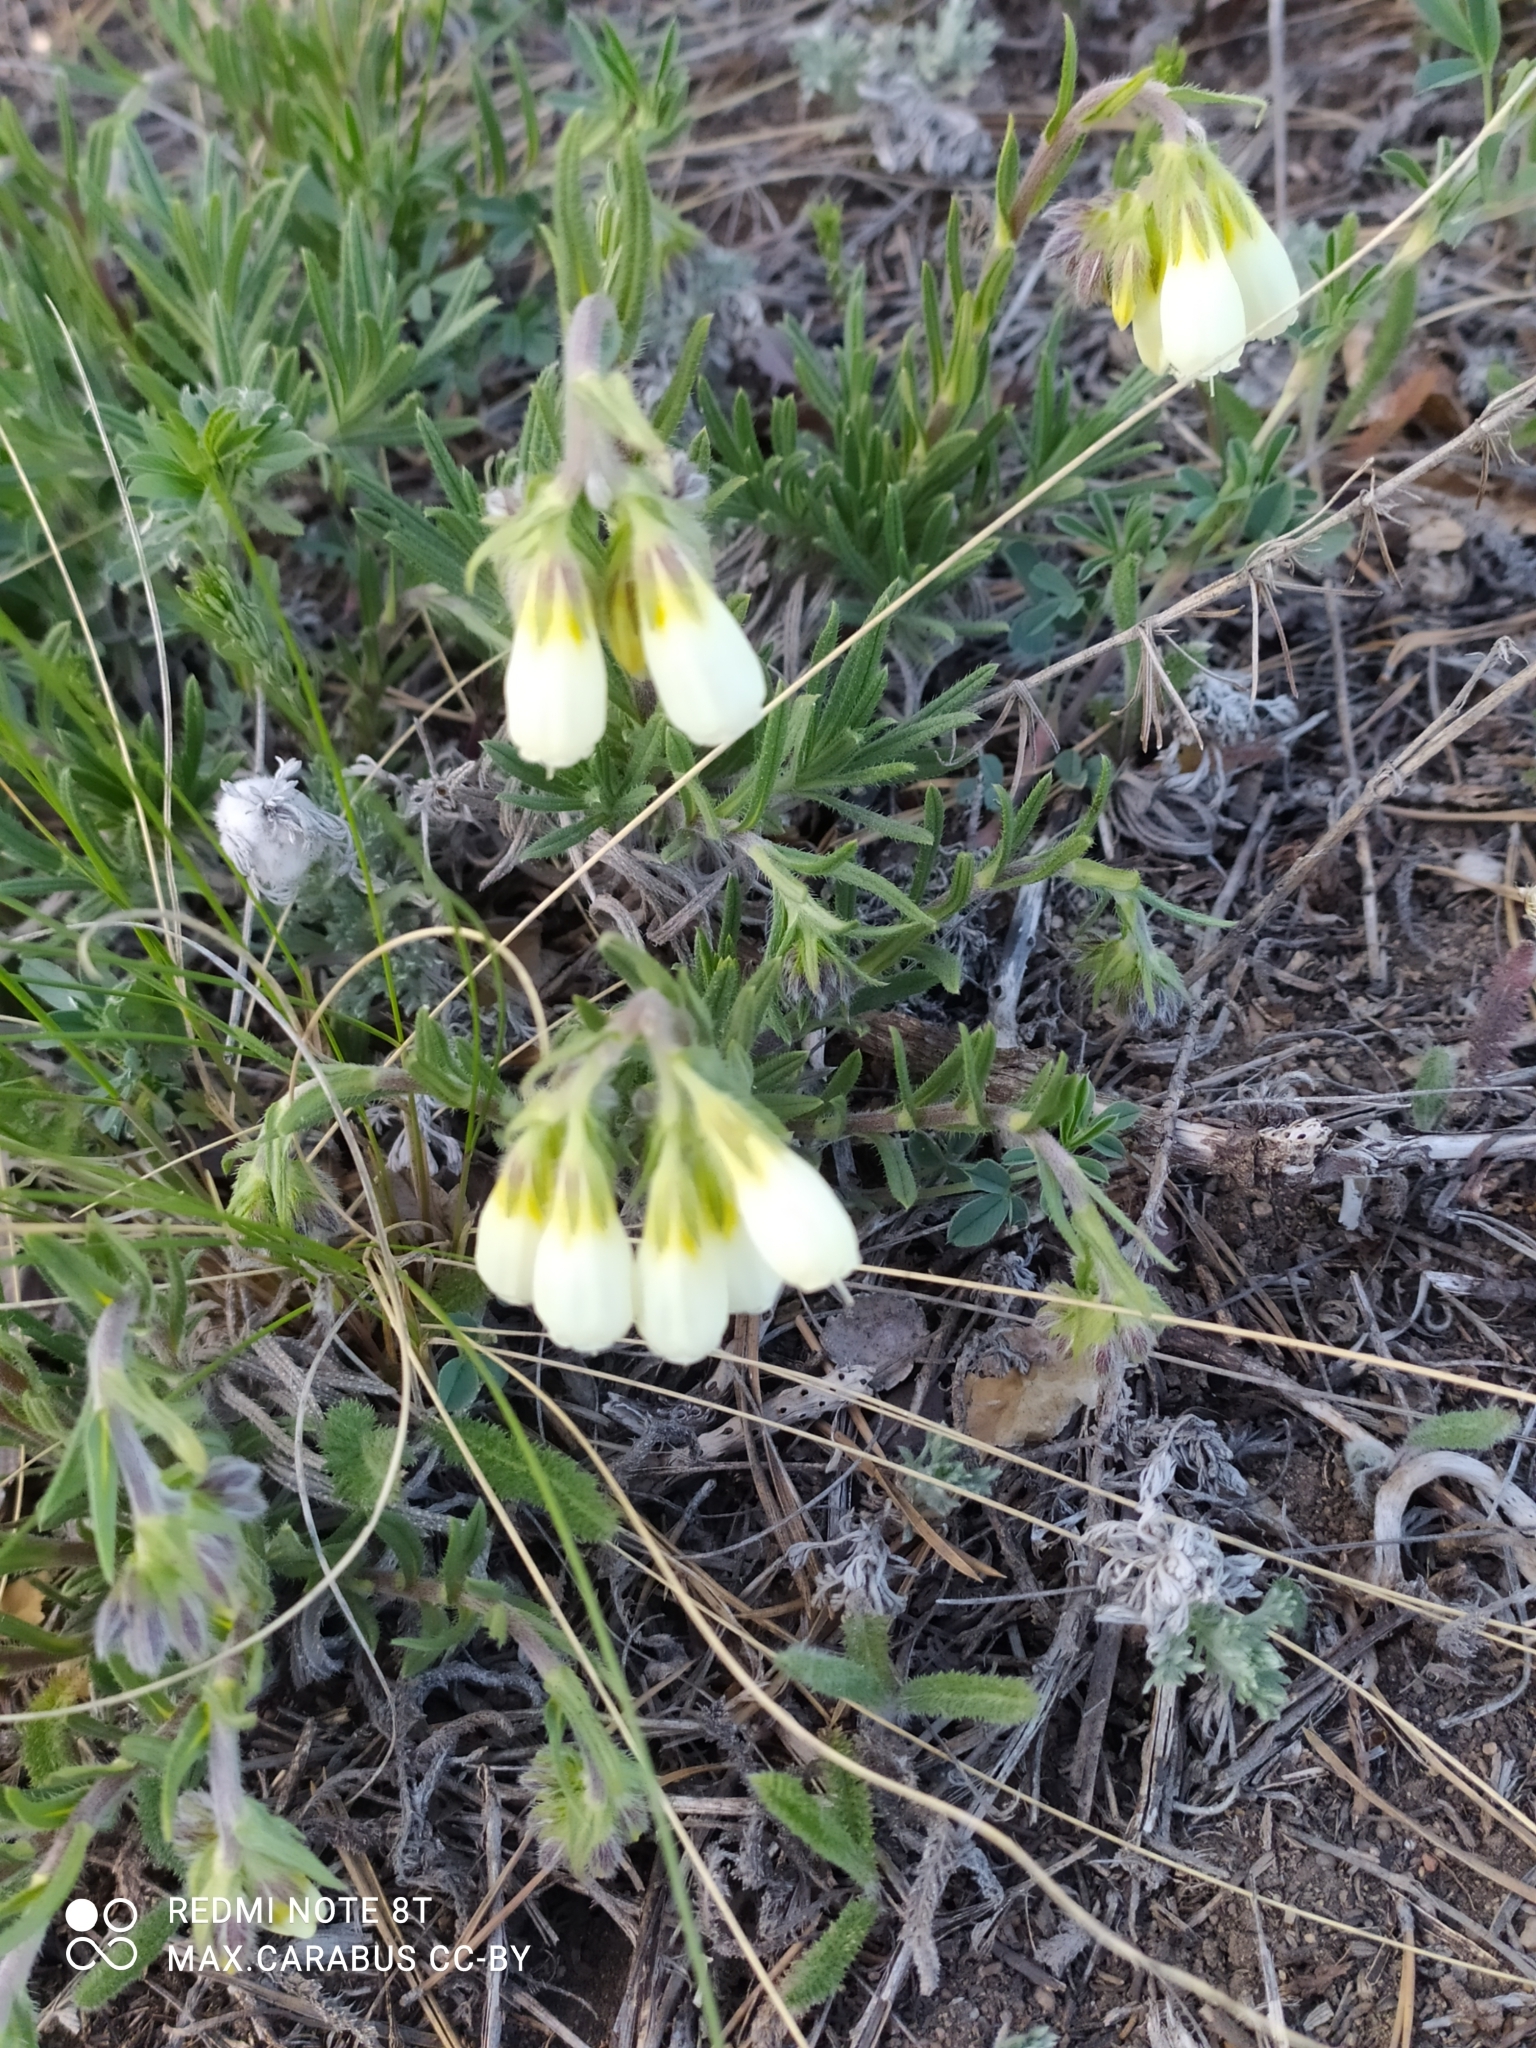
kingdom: Plantae
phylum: Tracheophyta
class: Magnoliopsida
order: Boraginales
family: Boraginaceae
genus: Onosma
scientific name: Onosma simplicissima
